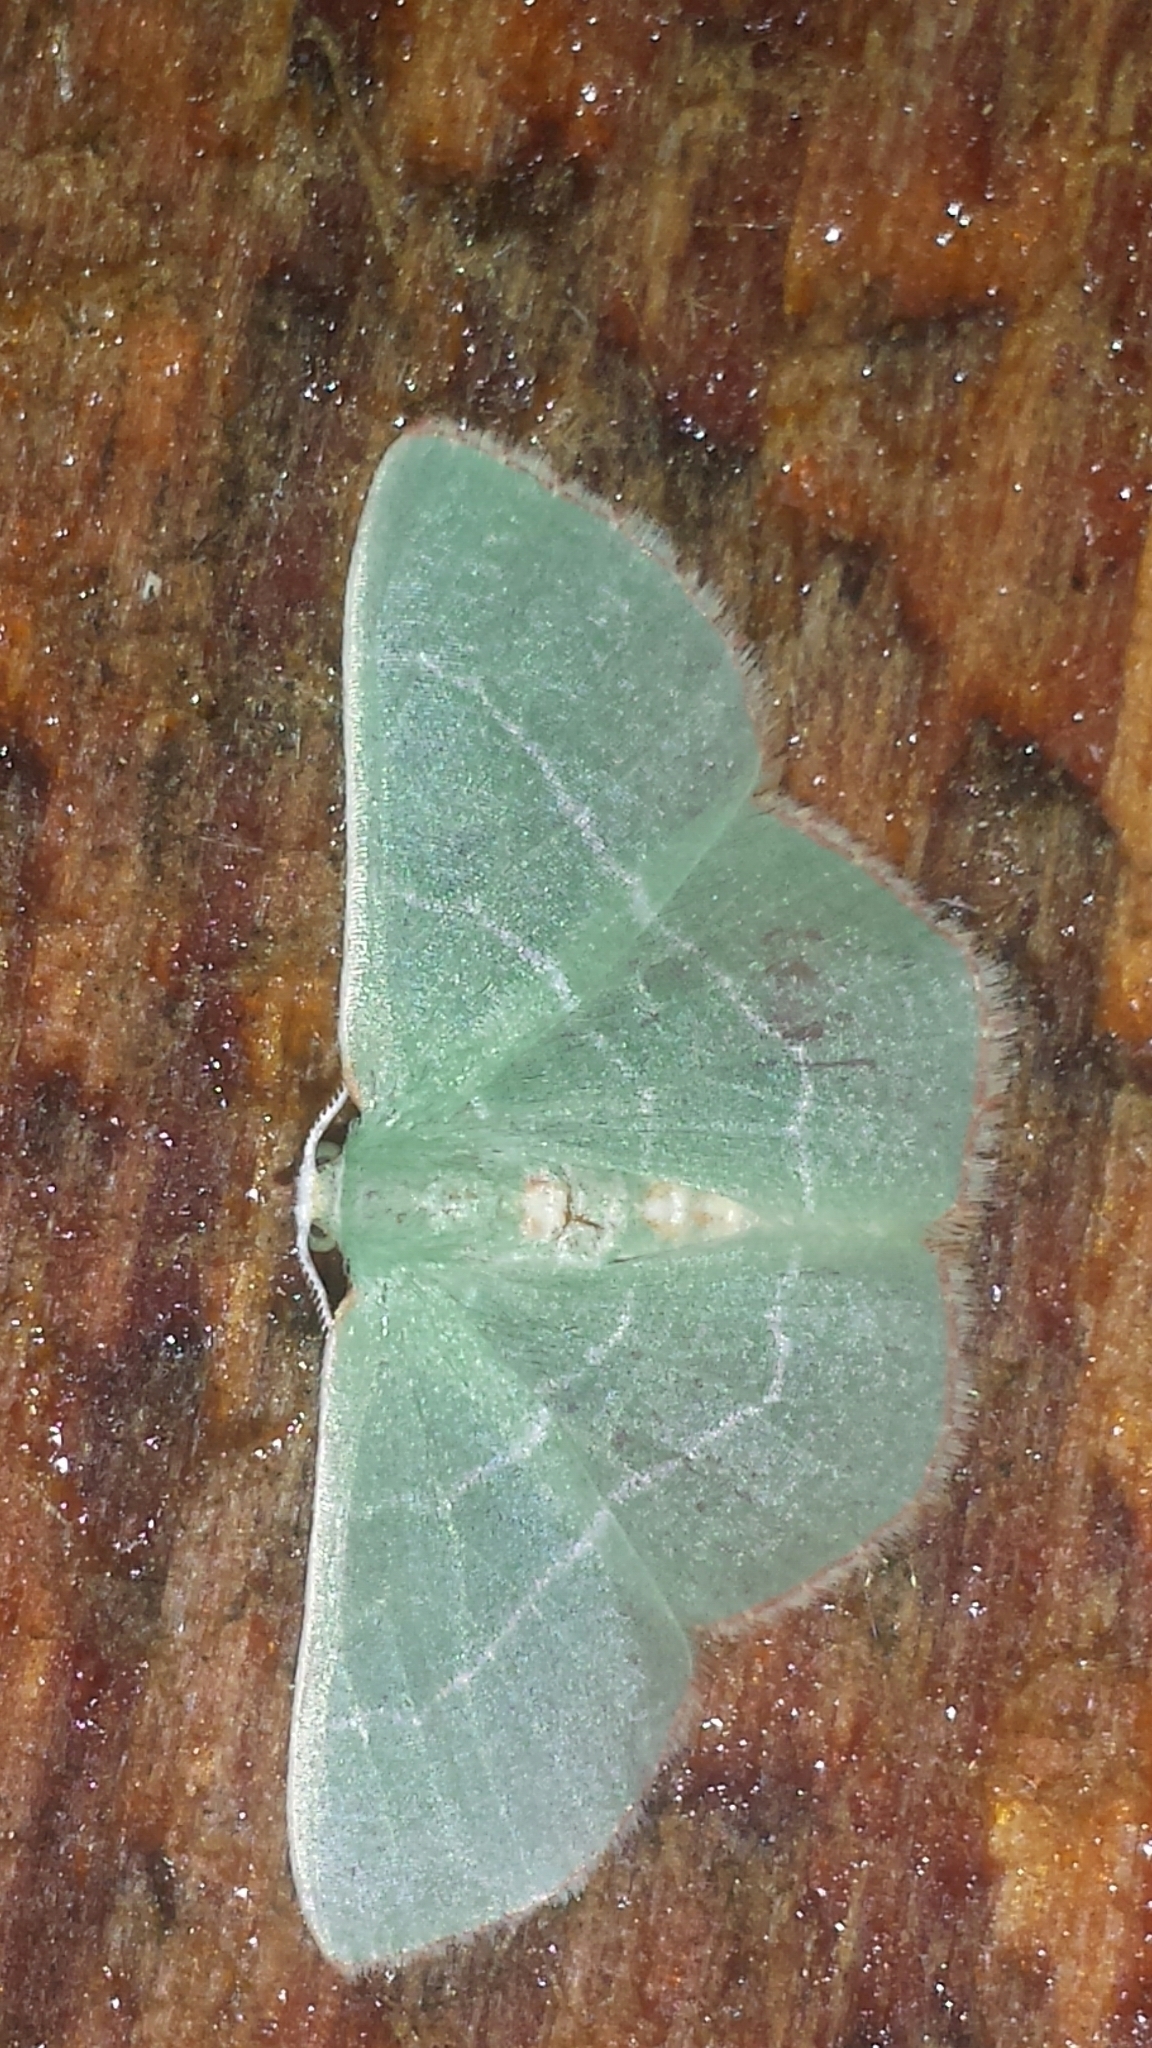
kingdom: Animalia
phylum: Arthropoda
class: Insecta
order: Lepidoptera
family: Geometridae
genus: Nemoria
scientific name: Nemoria bistriaria
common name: Red-fringed emerald
